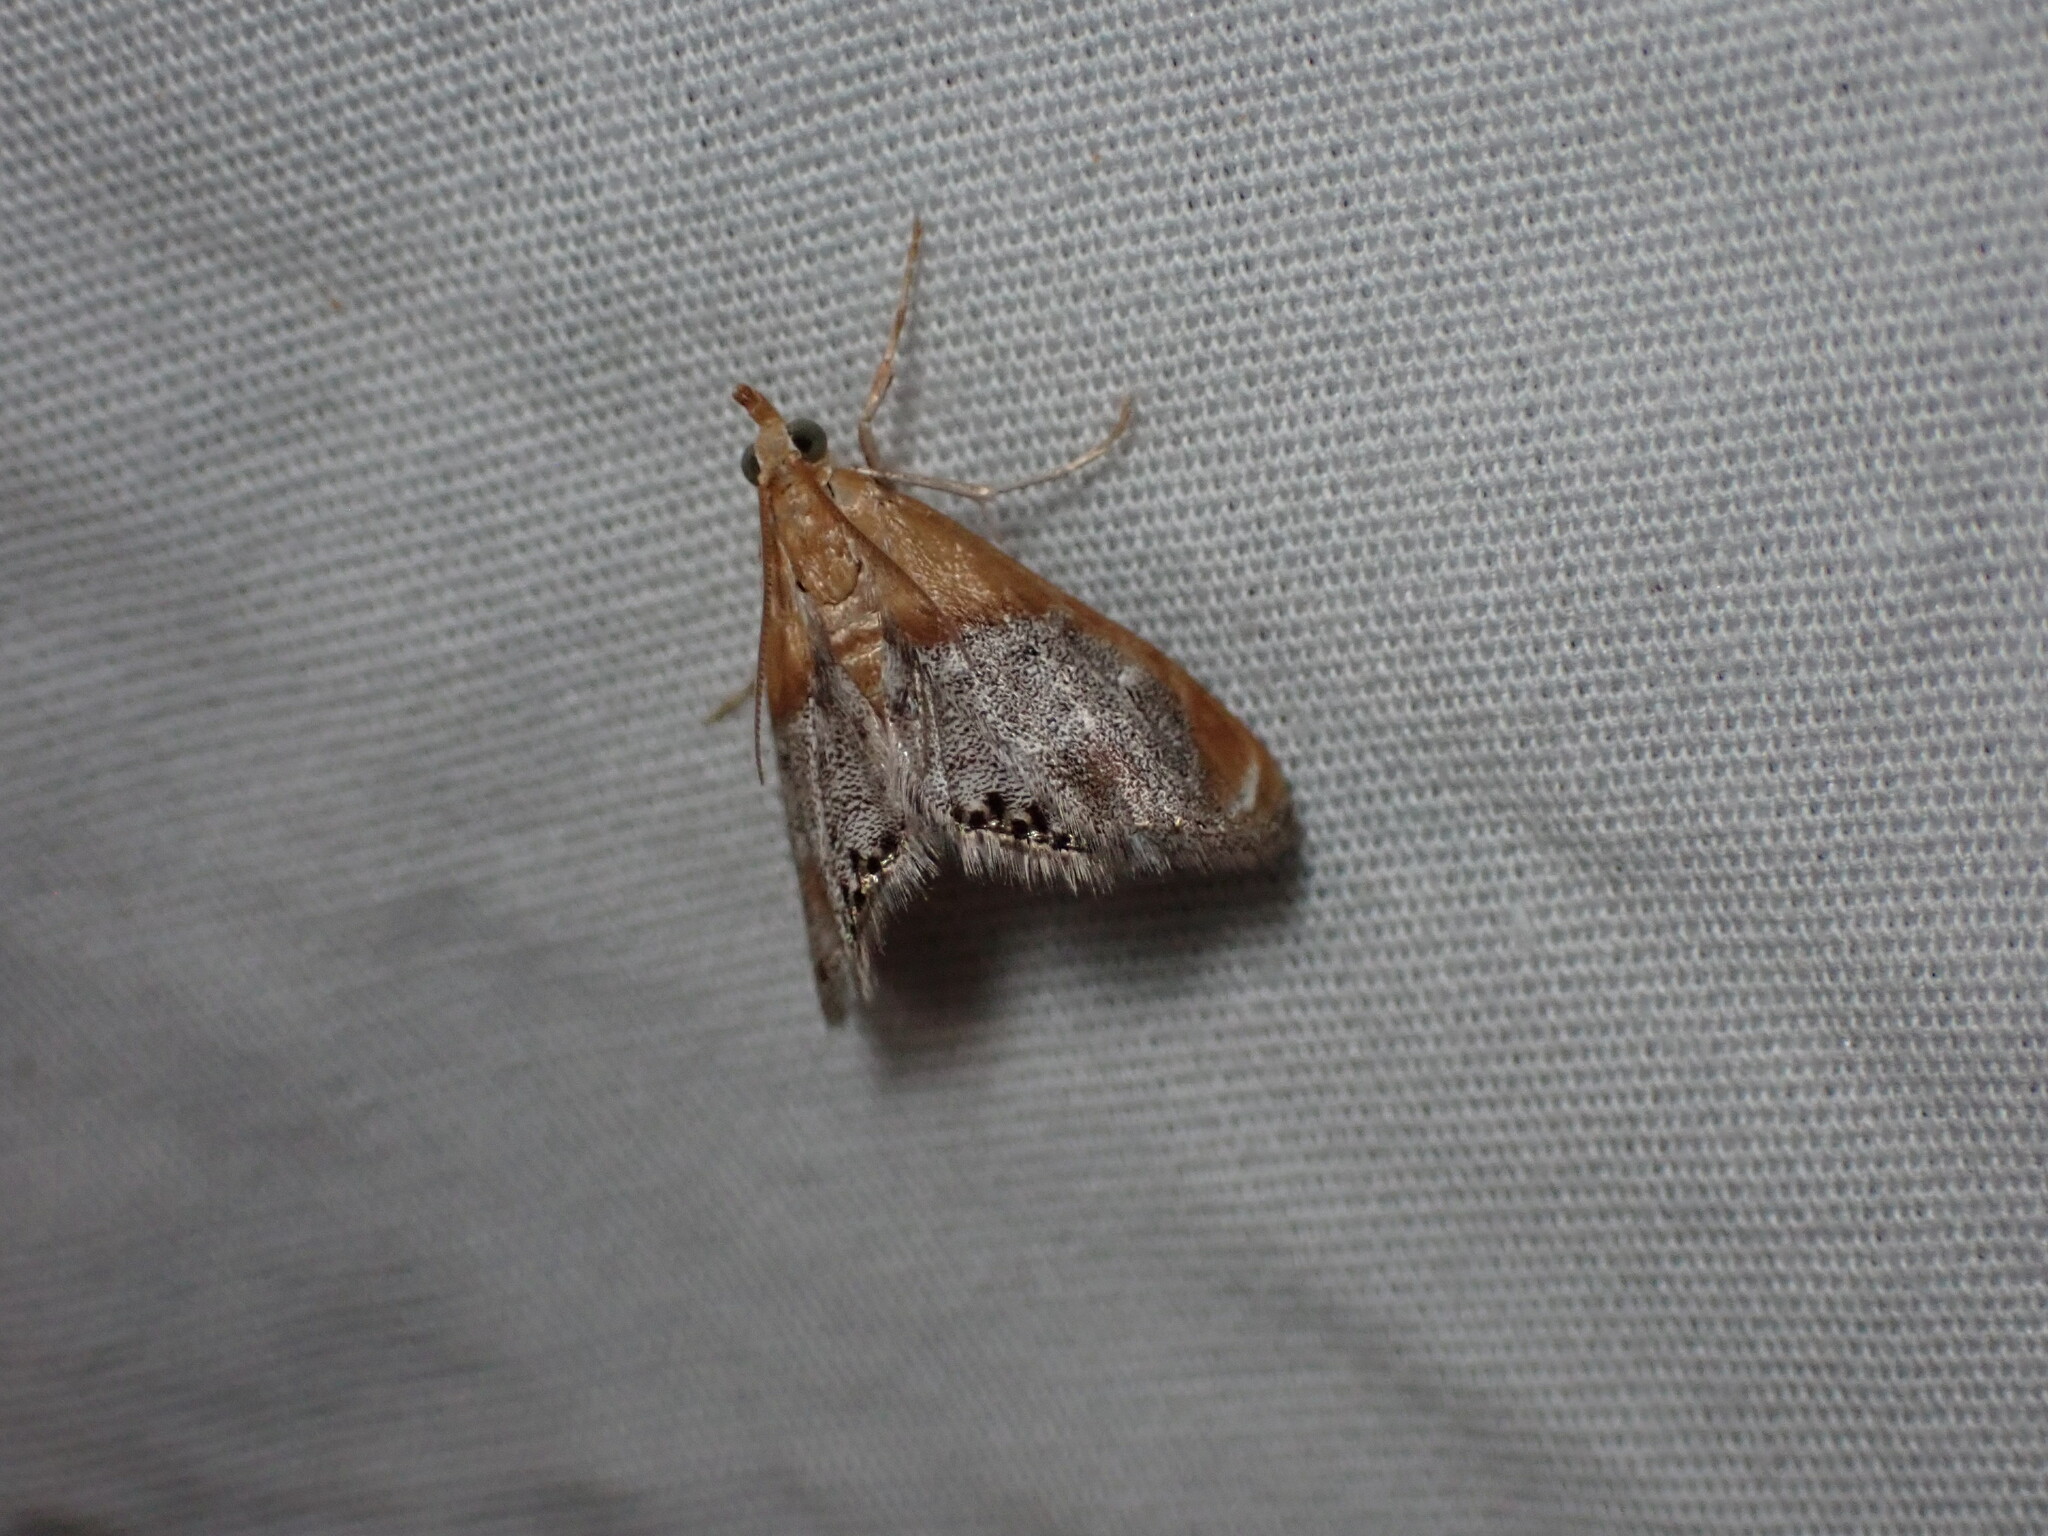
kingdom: Animalia
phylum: Arthropoda
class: Insecta
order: Lepidoptera
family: Crambidae
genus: Chalcoela
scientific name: Chalcoela iphitalis
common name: Sooty-winged chalcoela moth
